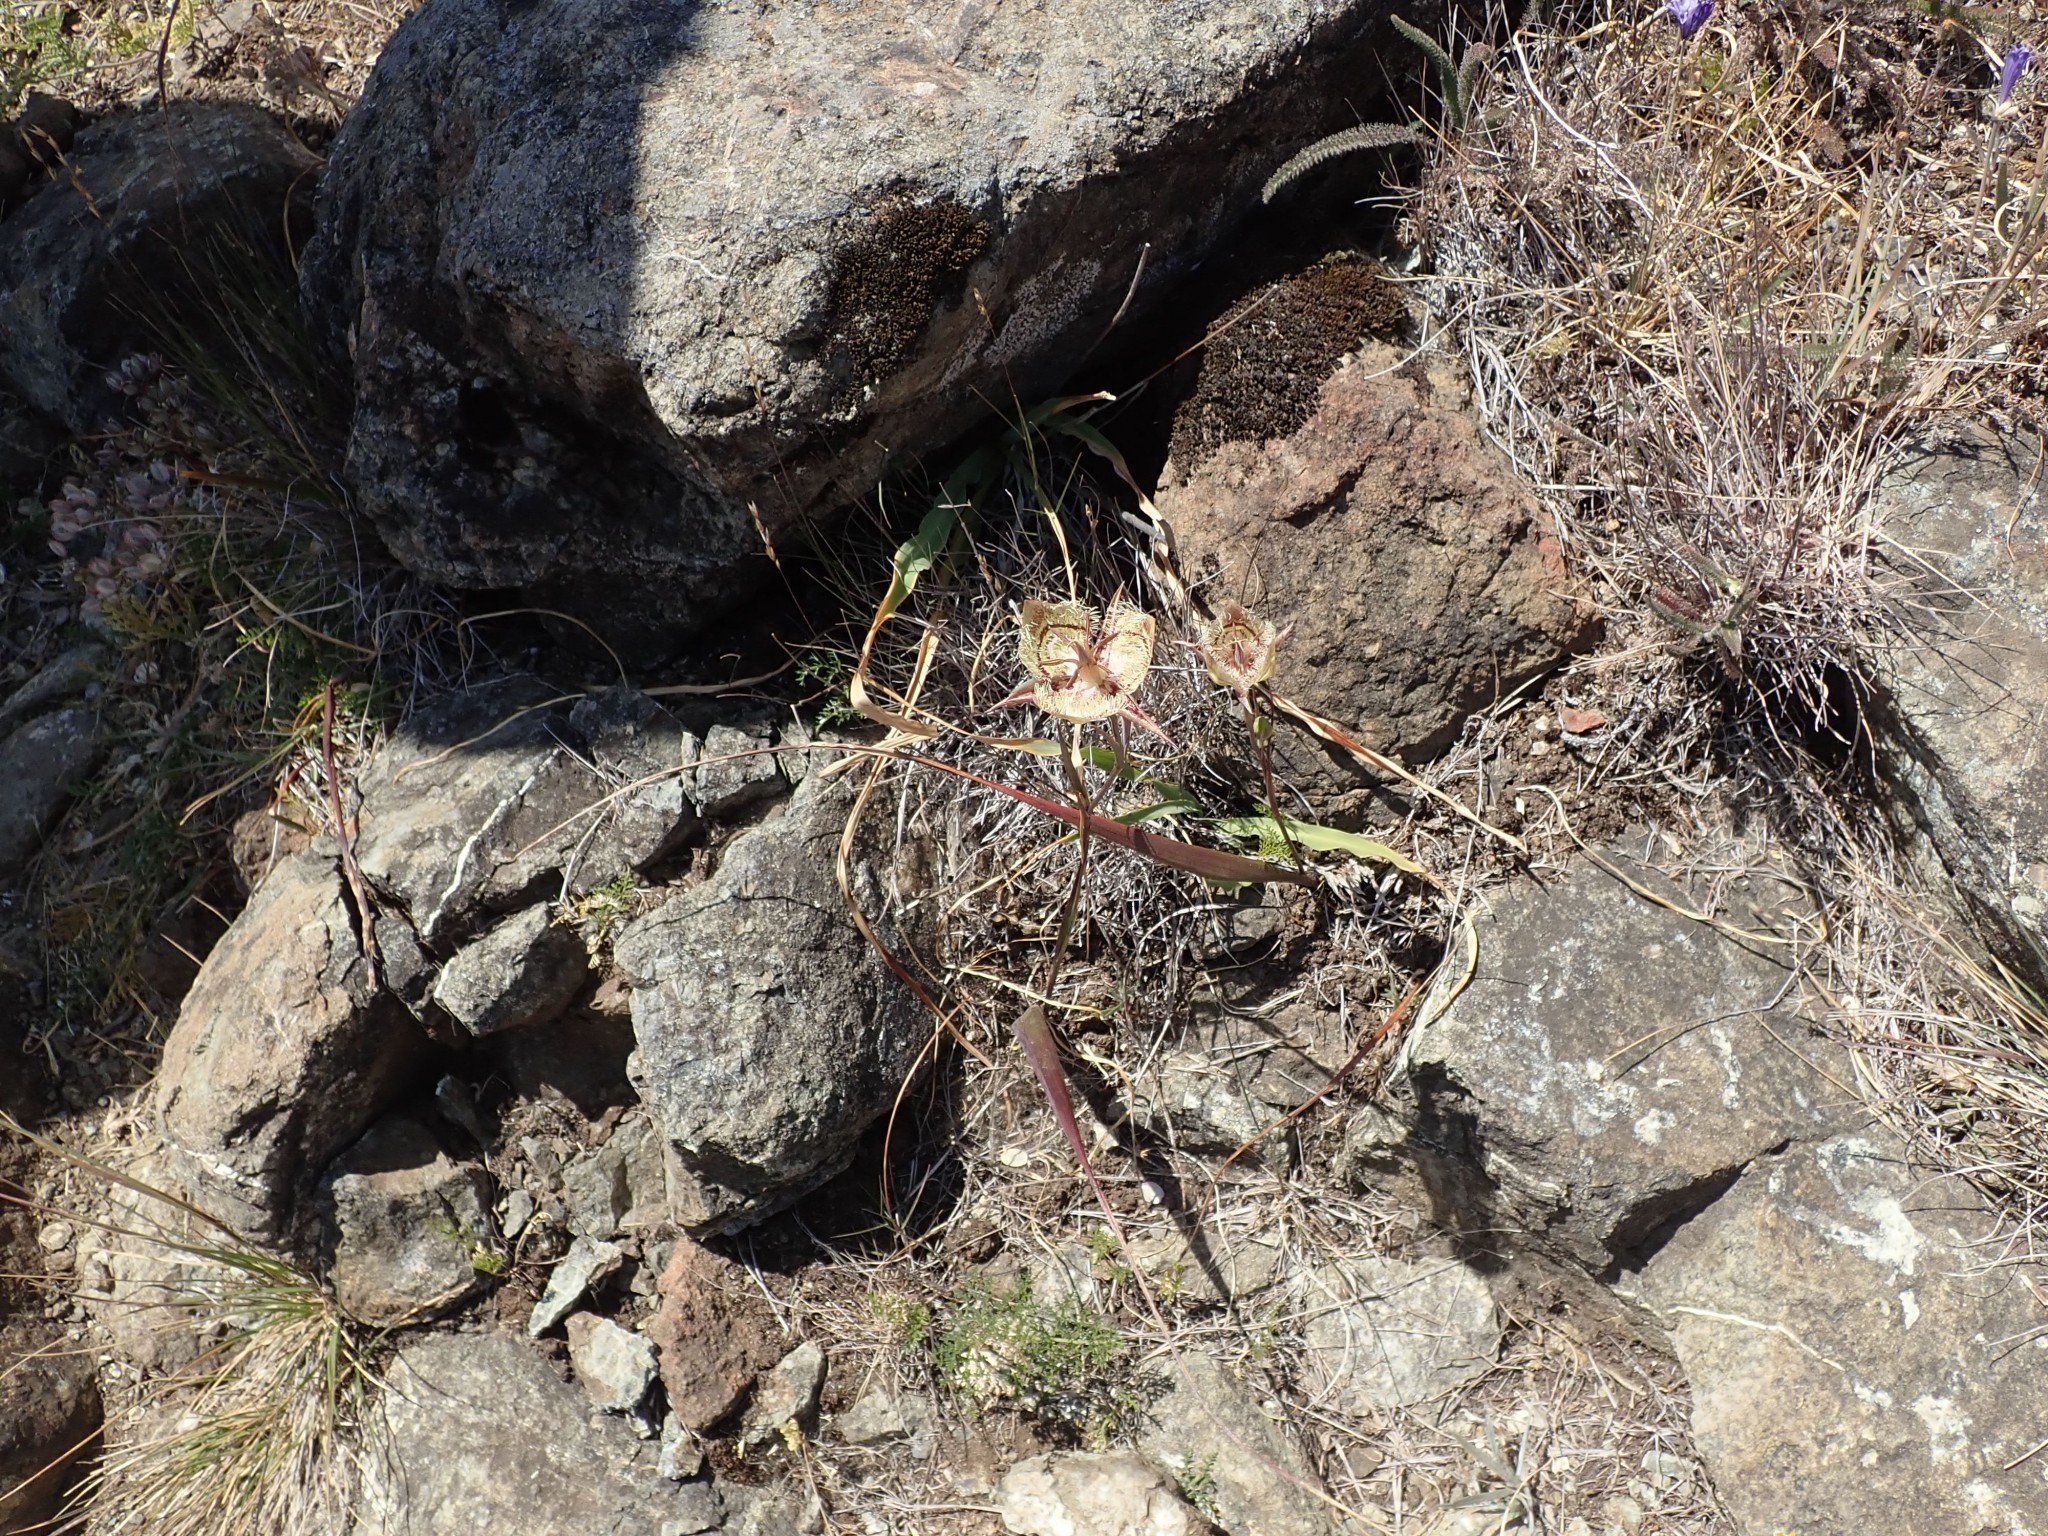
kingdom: Plantae
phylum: Tracheophyta
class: Liliopsida
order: Liliales
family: Liliaceae
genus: Calochortus
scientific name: Calochortus tiburonensis
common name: Tiburon mariposa-lily
